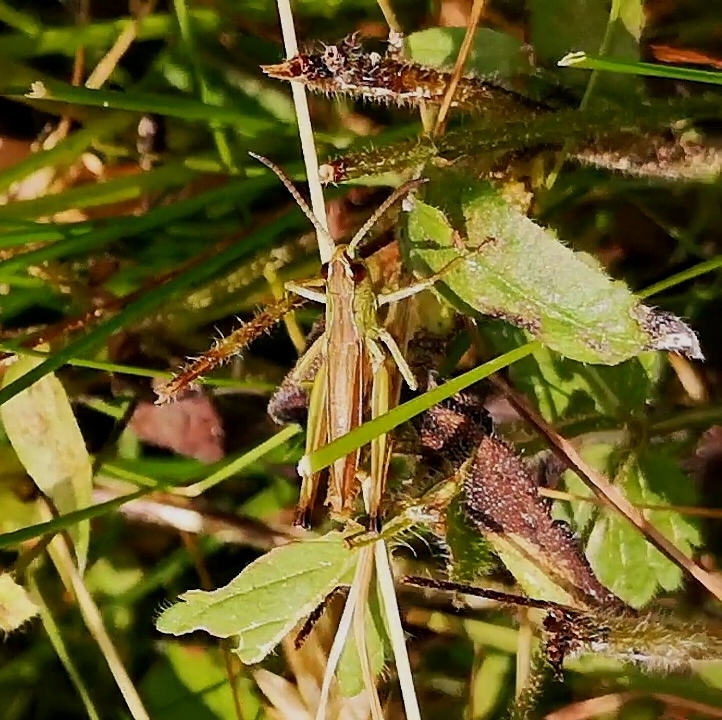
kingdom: Animalia
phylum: Arthropoda
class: Insecta
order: Orthoptera
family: Acrididae
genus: Pseudochorthippus
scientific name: Pseudochorthippus parallelus
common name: Meadow grasshopper
